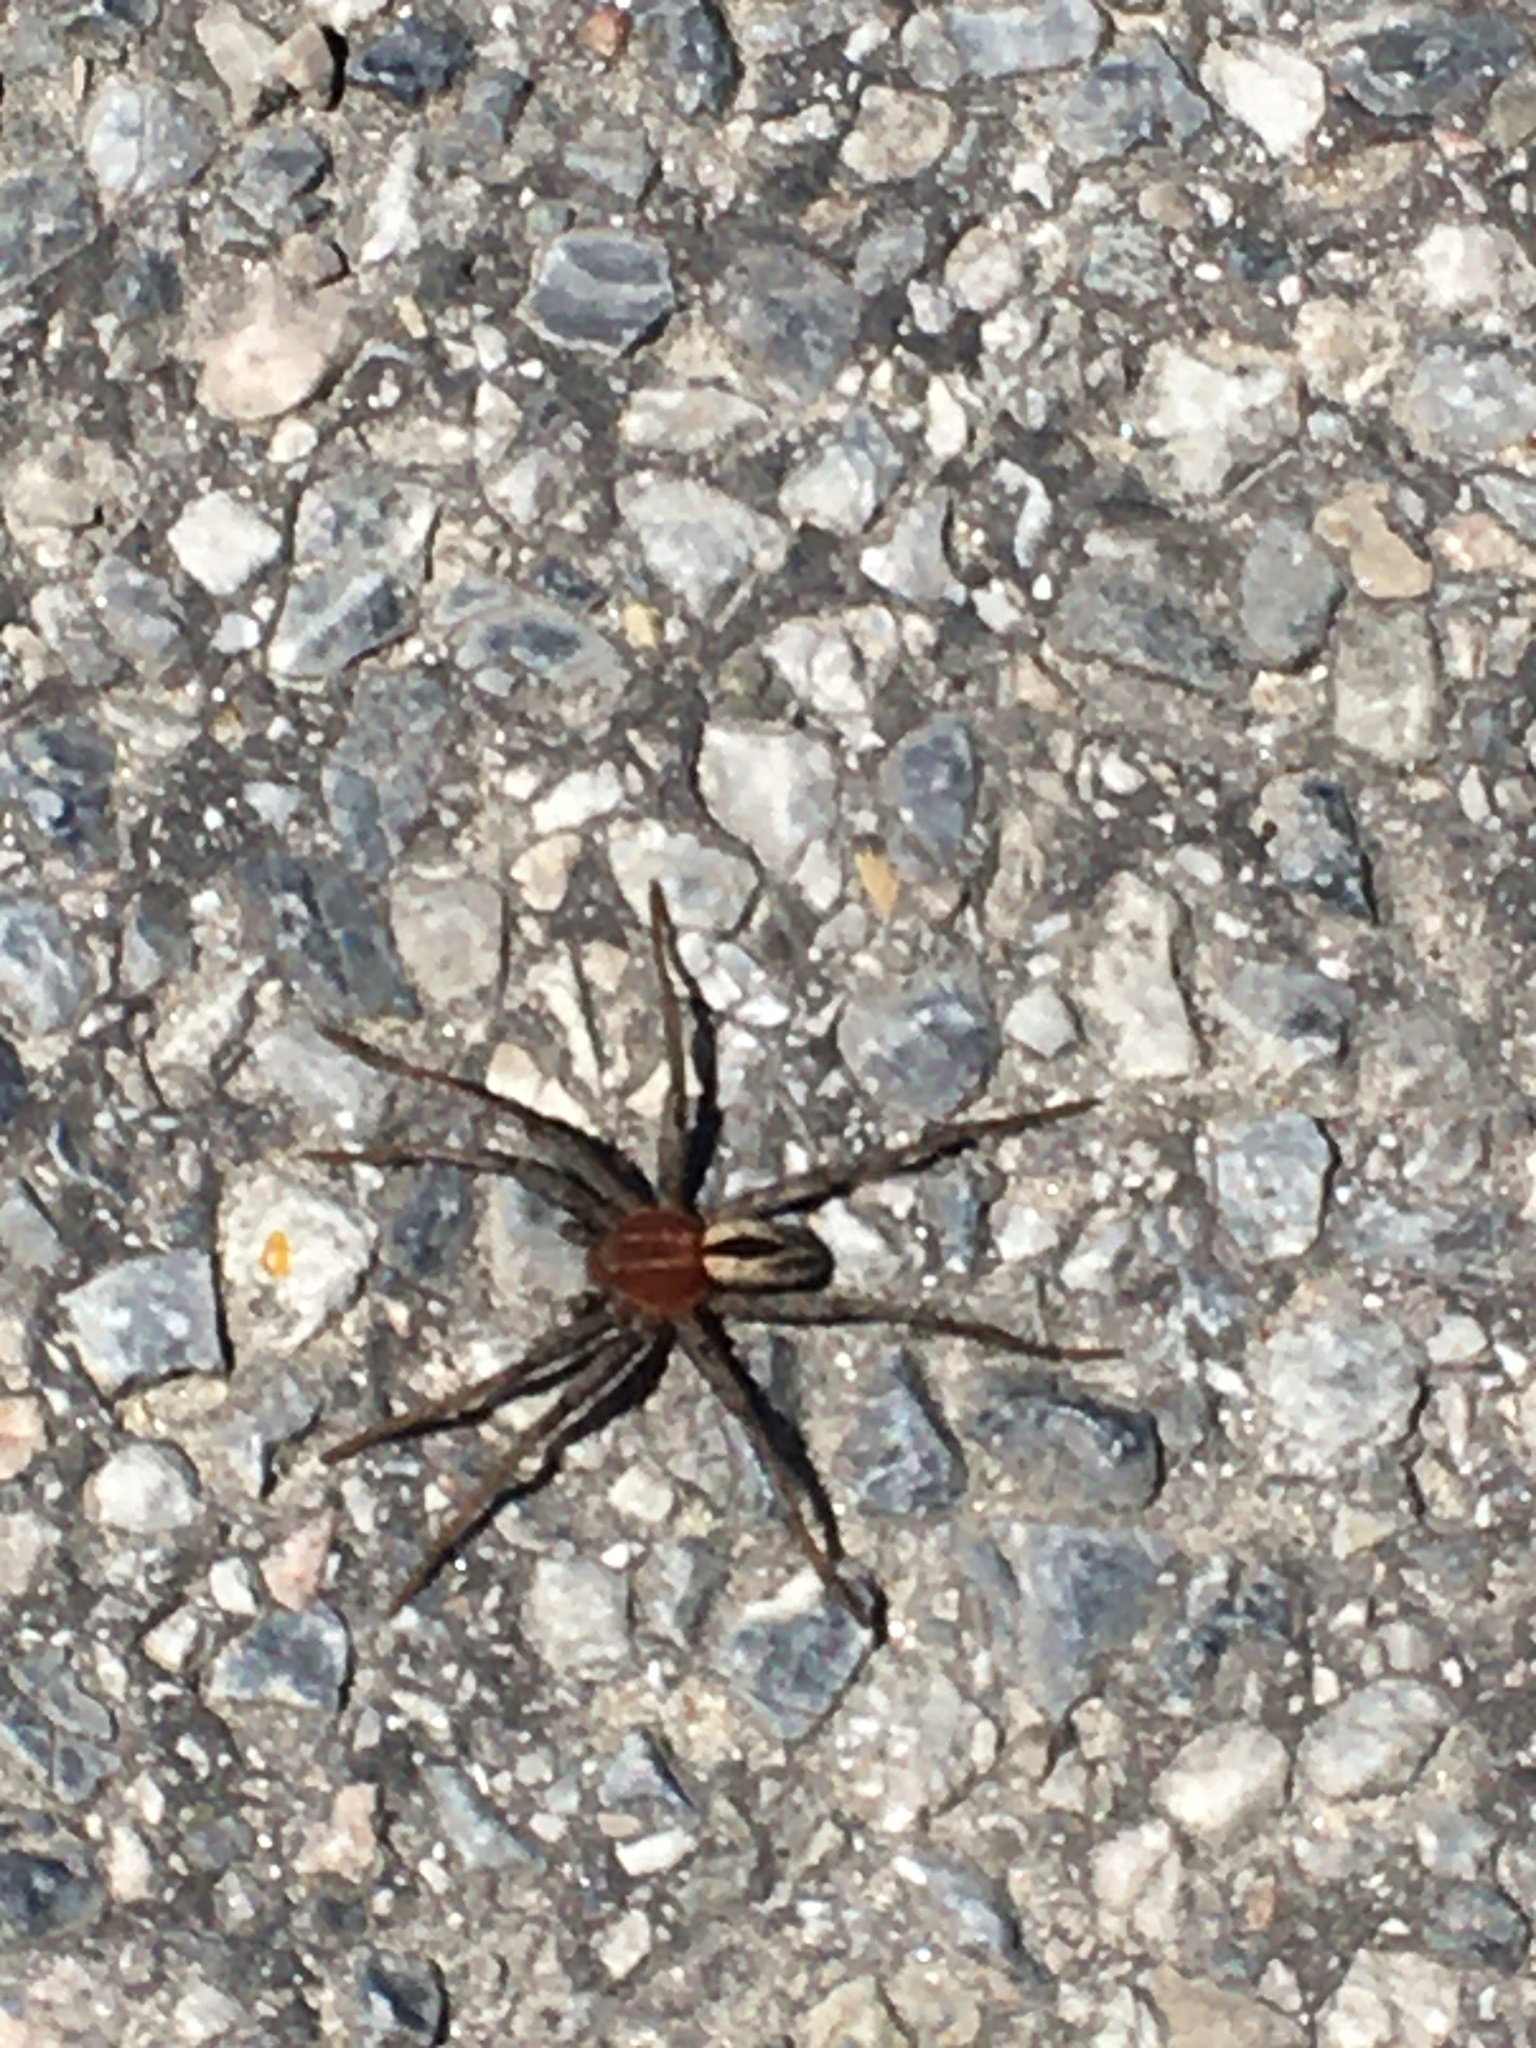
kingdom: Animalia
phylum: Arthropoda
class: Arachnida
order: Araneae
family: Philodromidae
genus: Thanatus
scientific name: Thanatus arenarius
